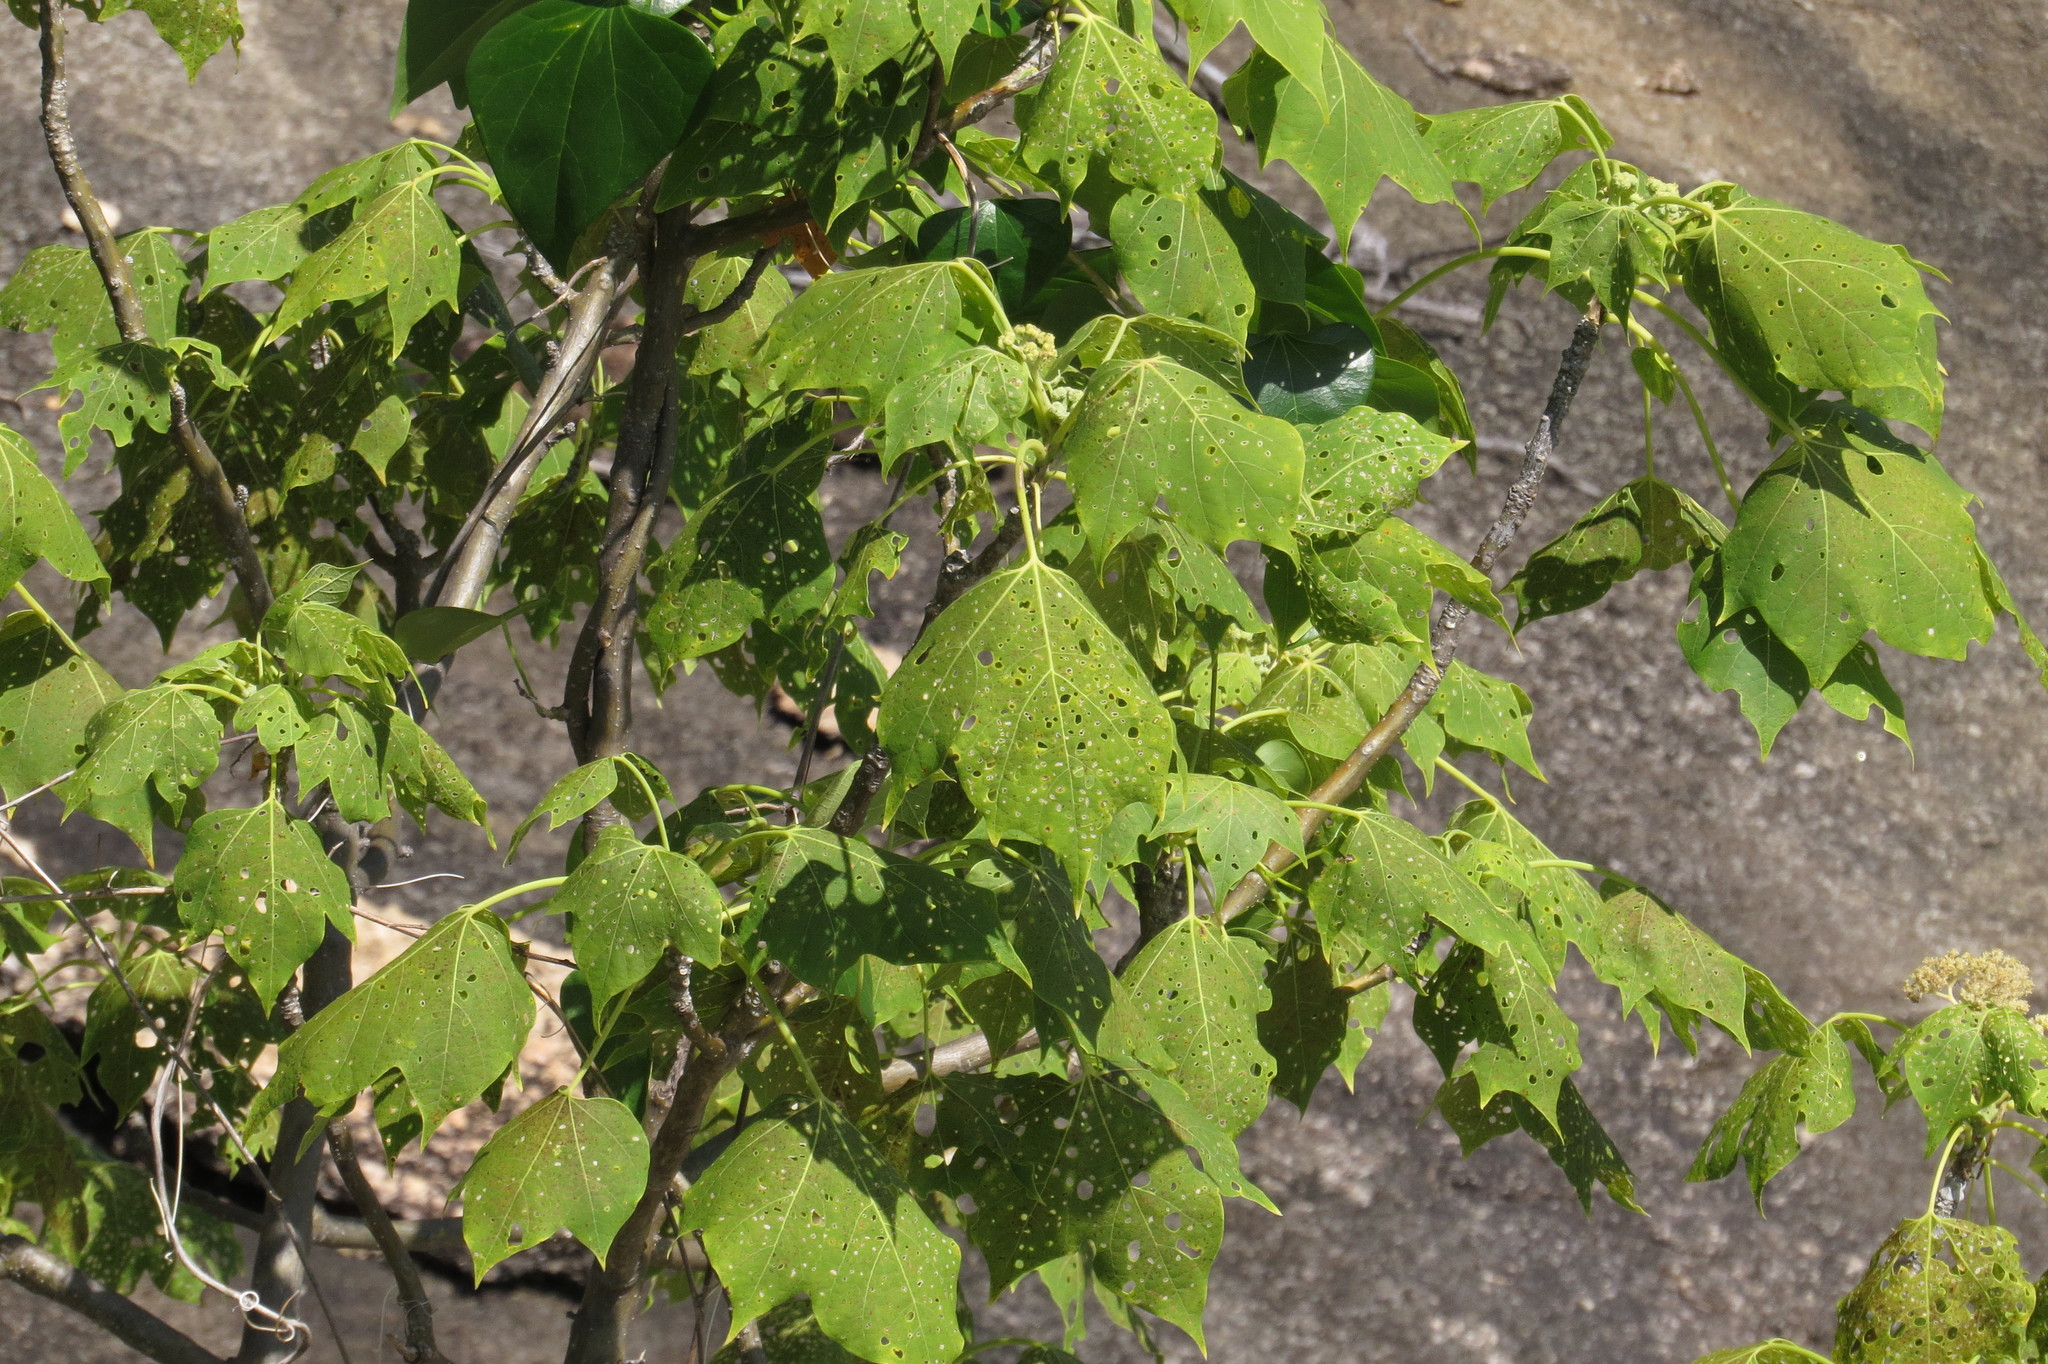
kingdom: Plantae
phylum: Tracheophyta
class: Magnoliopsida
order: Laurales
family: Hernandiaceae
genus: Gyrocarpus
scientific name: Gyrocarpus americanus
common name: Gyro damson
